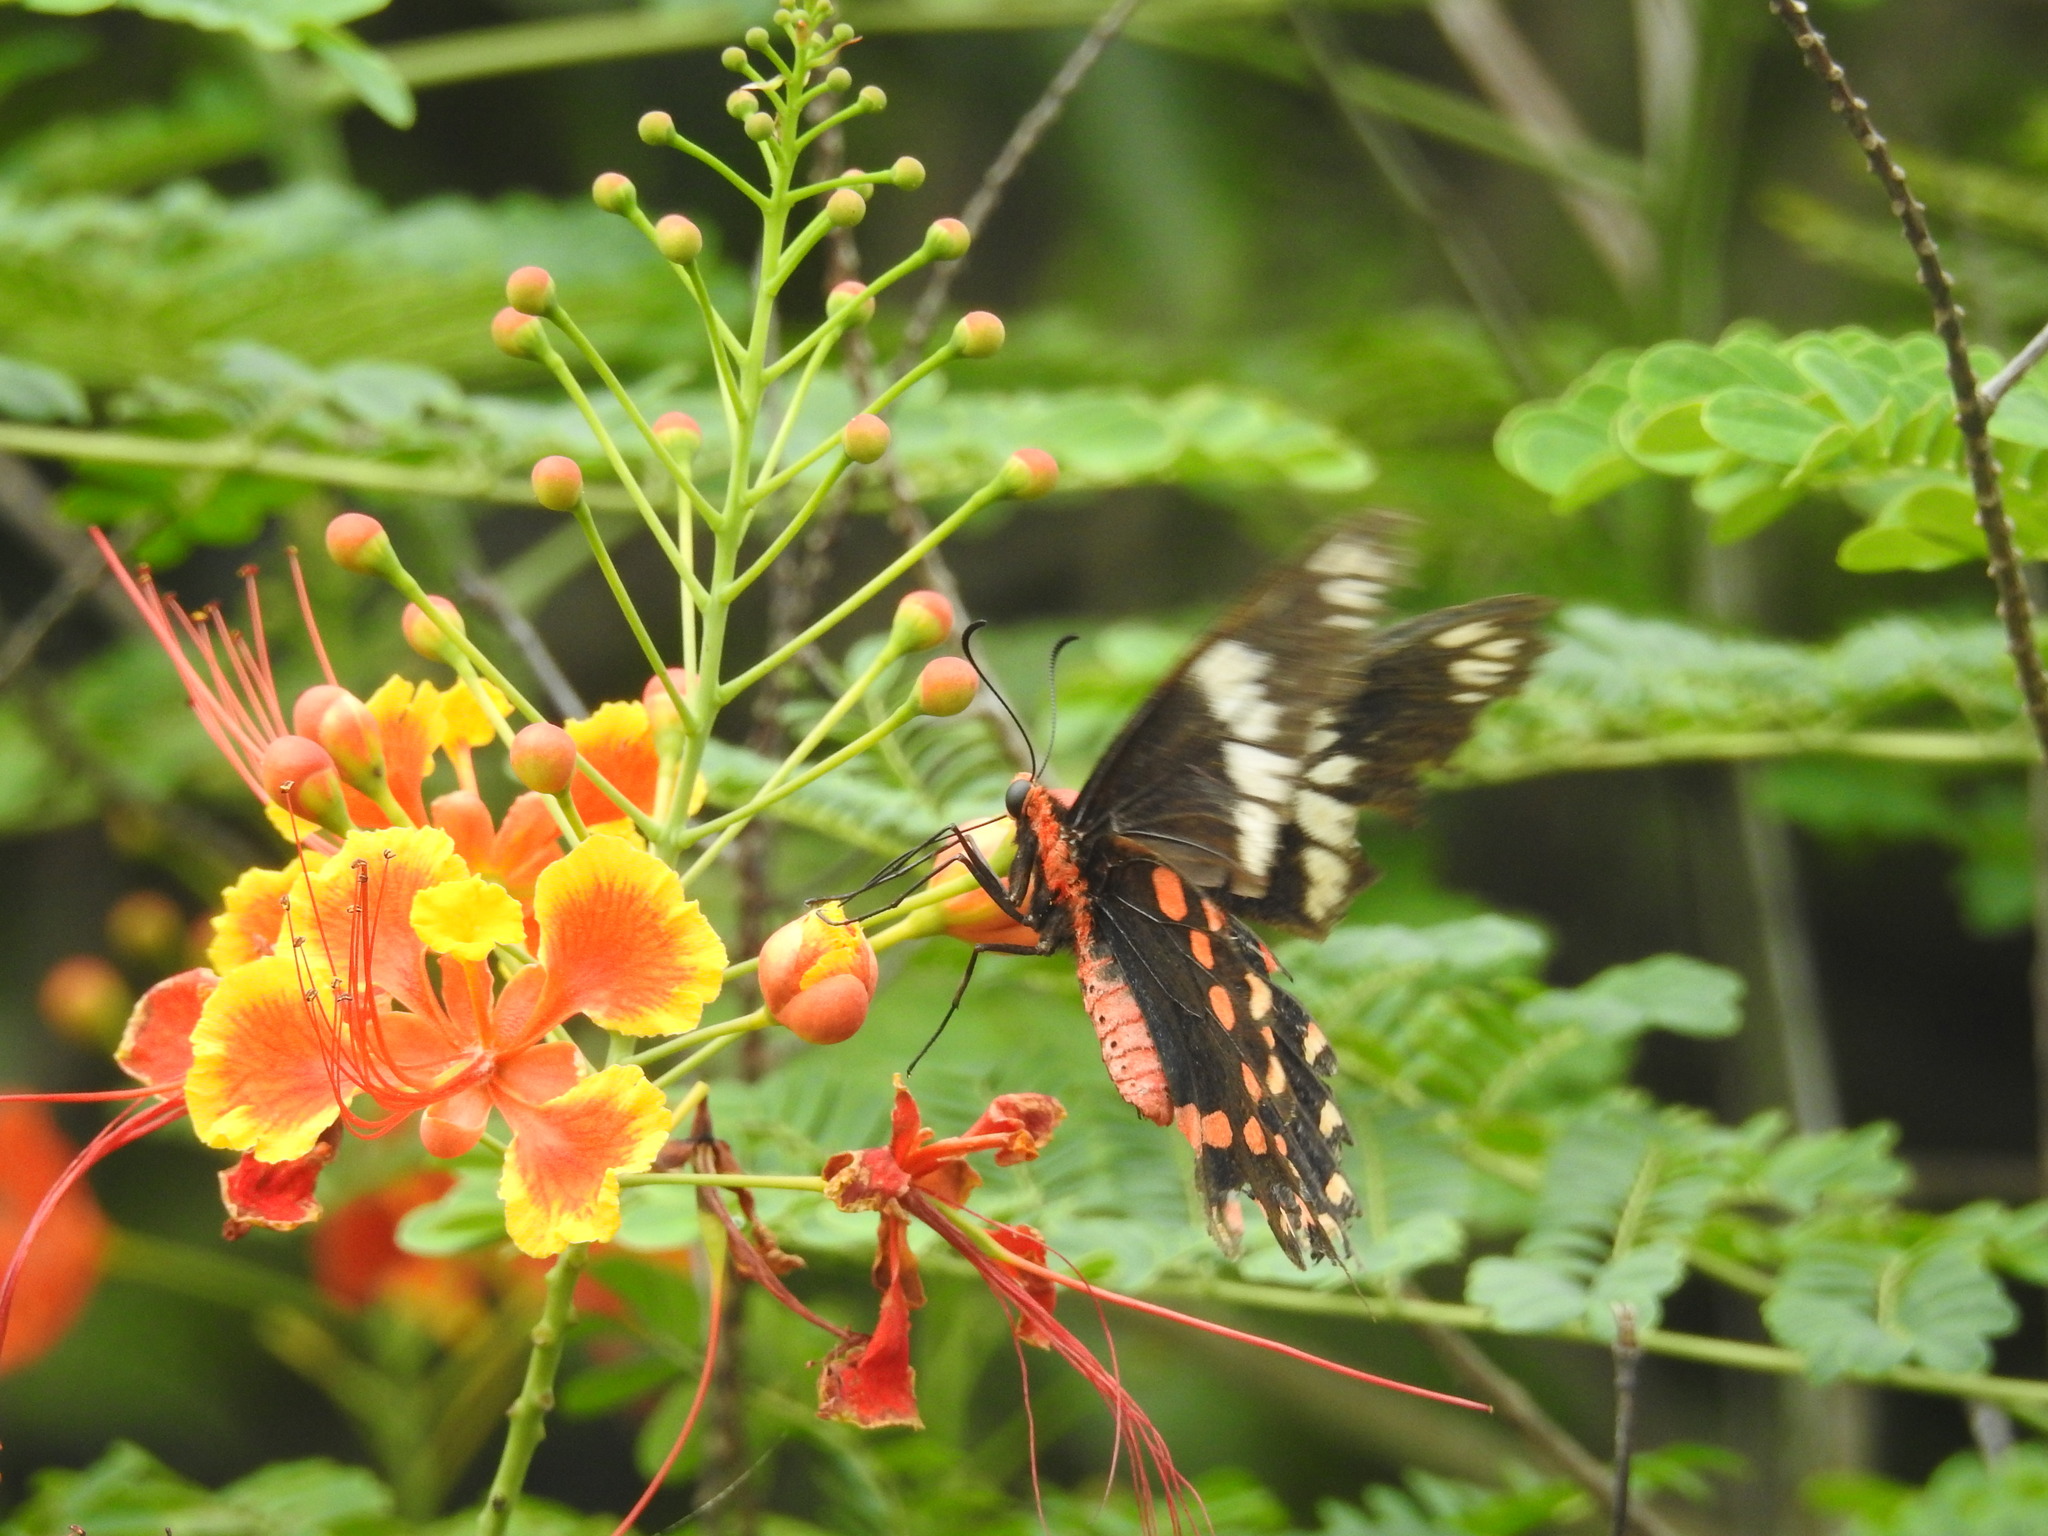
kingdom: Animalia
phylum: Arthropoda
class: Insecta
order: Lepidoptera
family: Papilionidae
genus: Pachliopta
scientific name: Pachliopta hector
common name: Crimson rose
